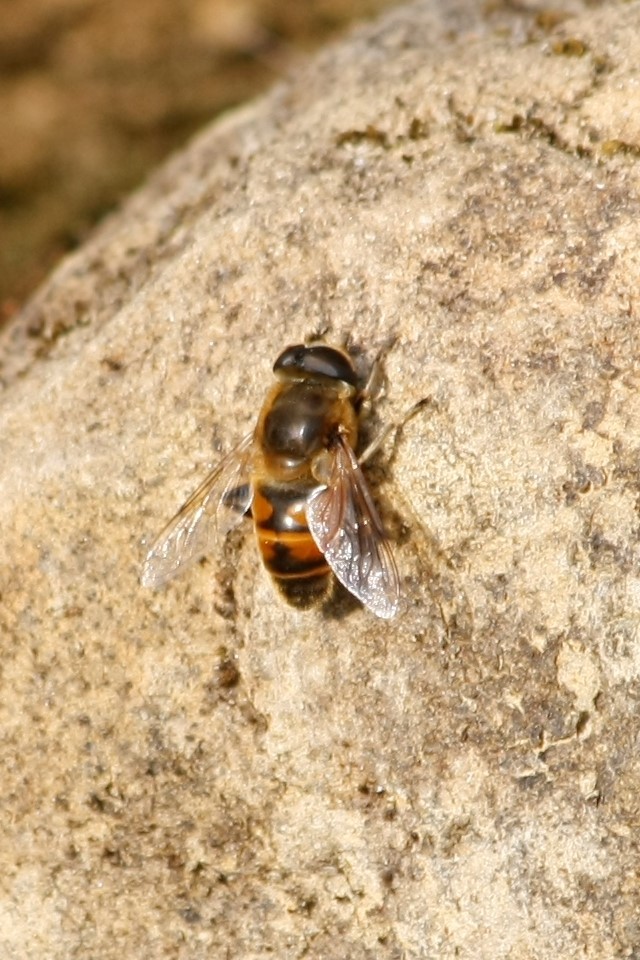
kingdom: Animalia
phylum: Arthropoda
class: Insecta
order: Diptera
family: Syrphidae
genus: Eristalis
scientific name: Eristalis tenax
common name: Drone fly
